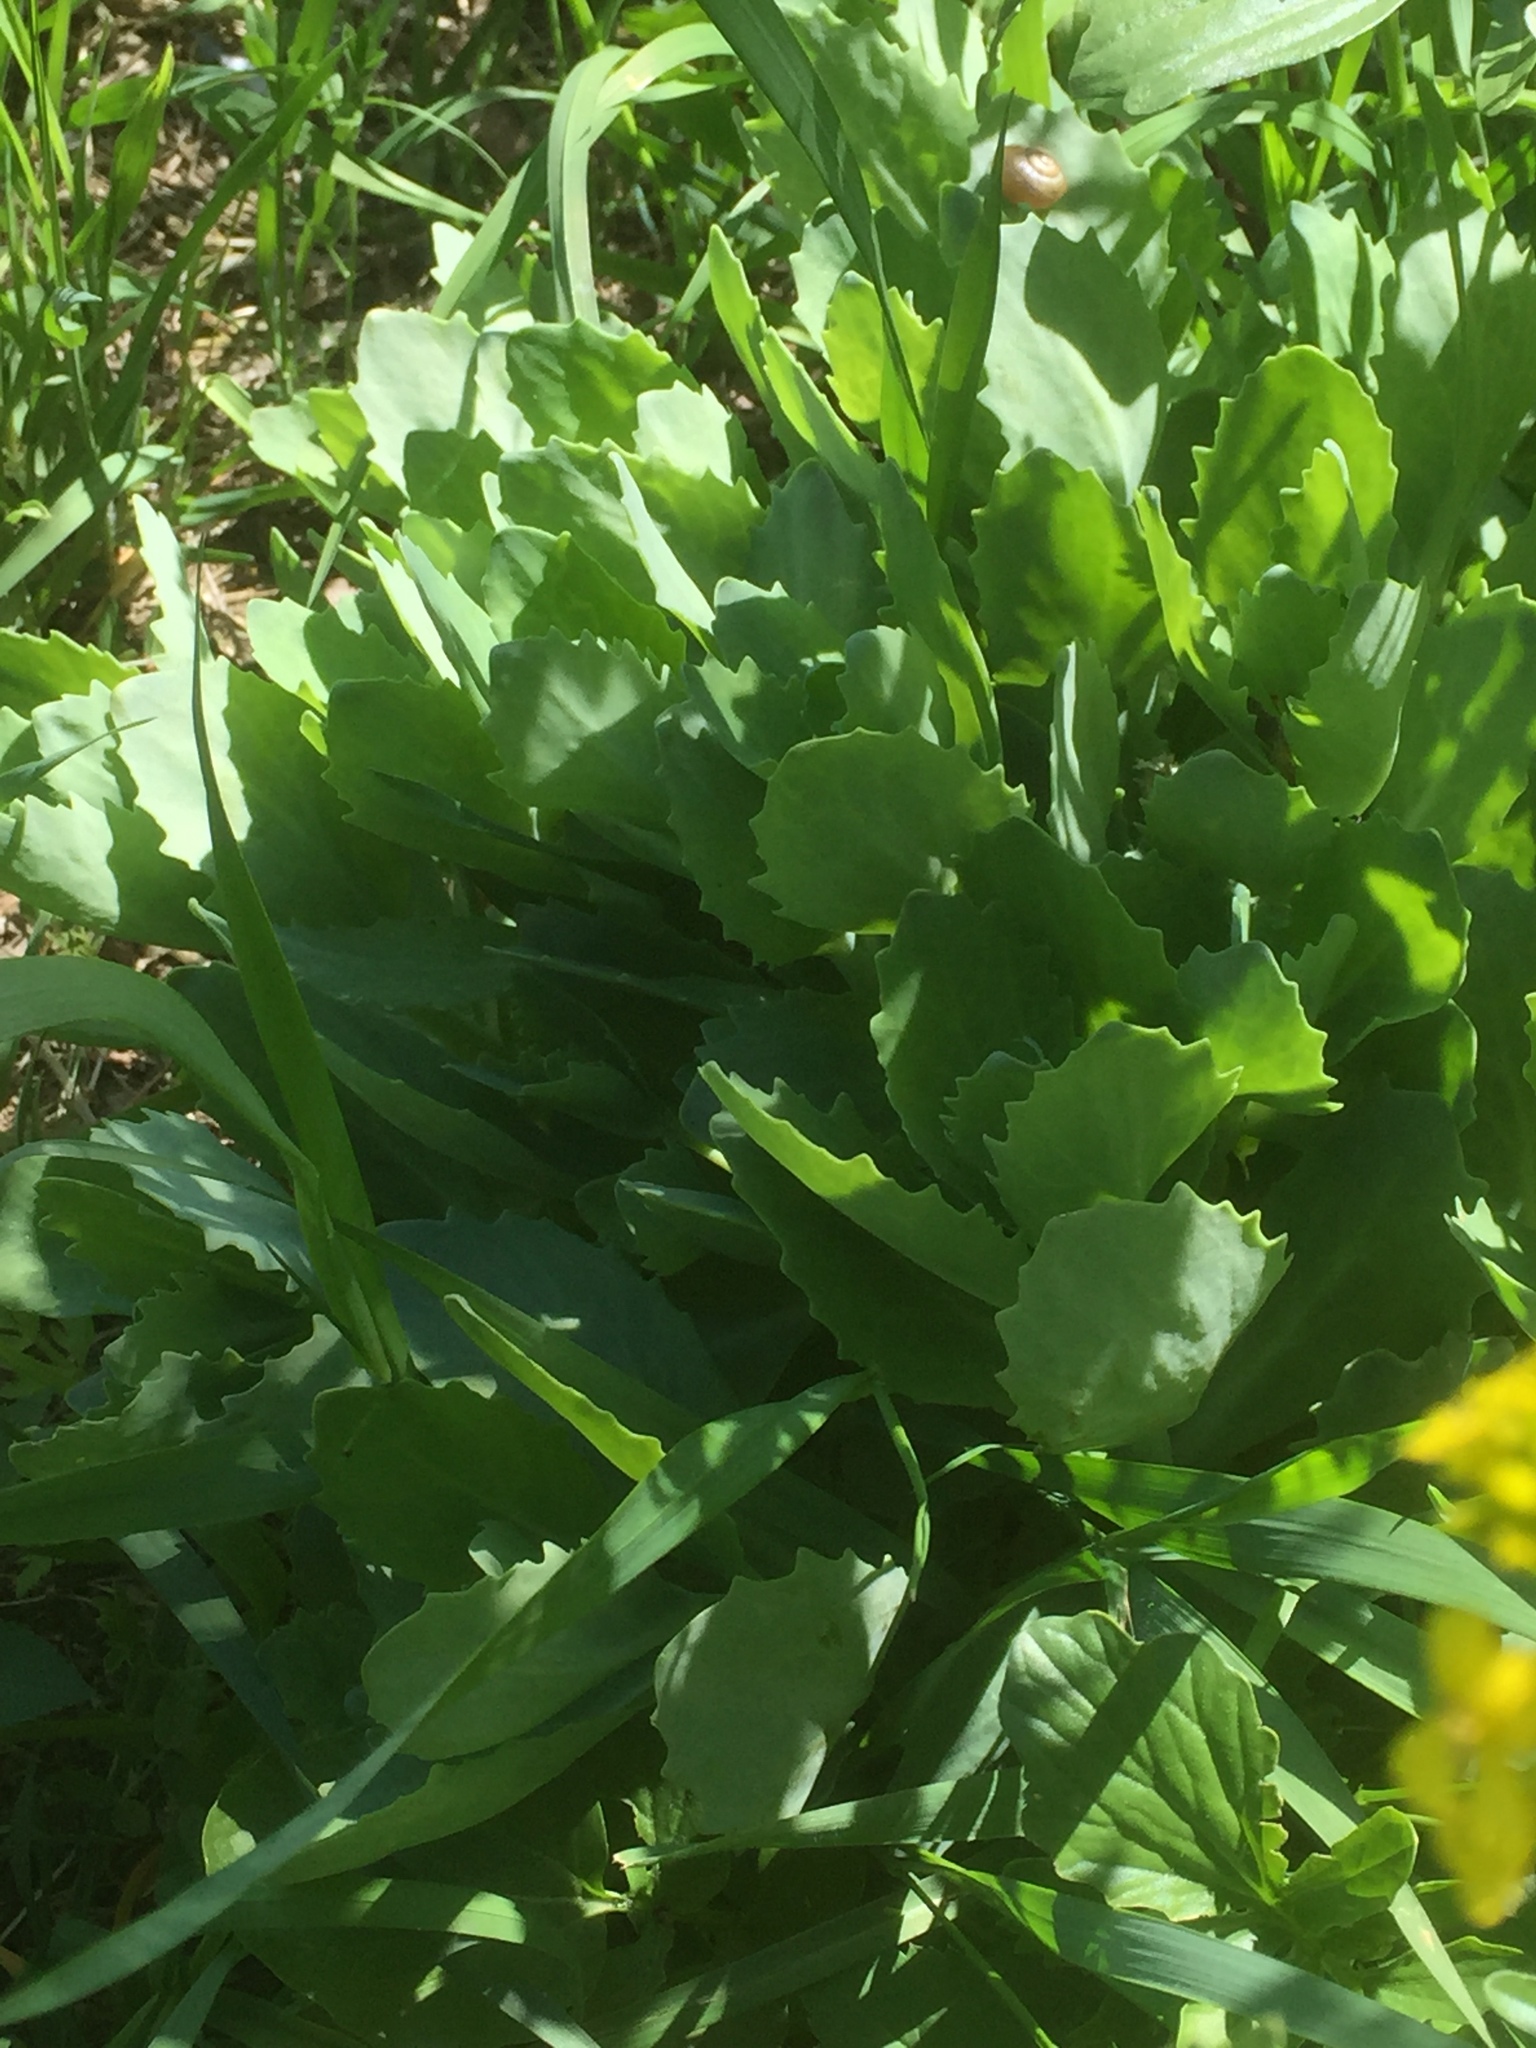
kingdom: Plantae
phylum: Tracheophyta
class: Magnoliopsida
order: Saxifragales
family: Crassulaceae
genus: Hylotelephium
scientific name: Hylotelephium telephium
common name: Live-forever
